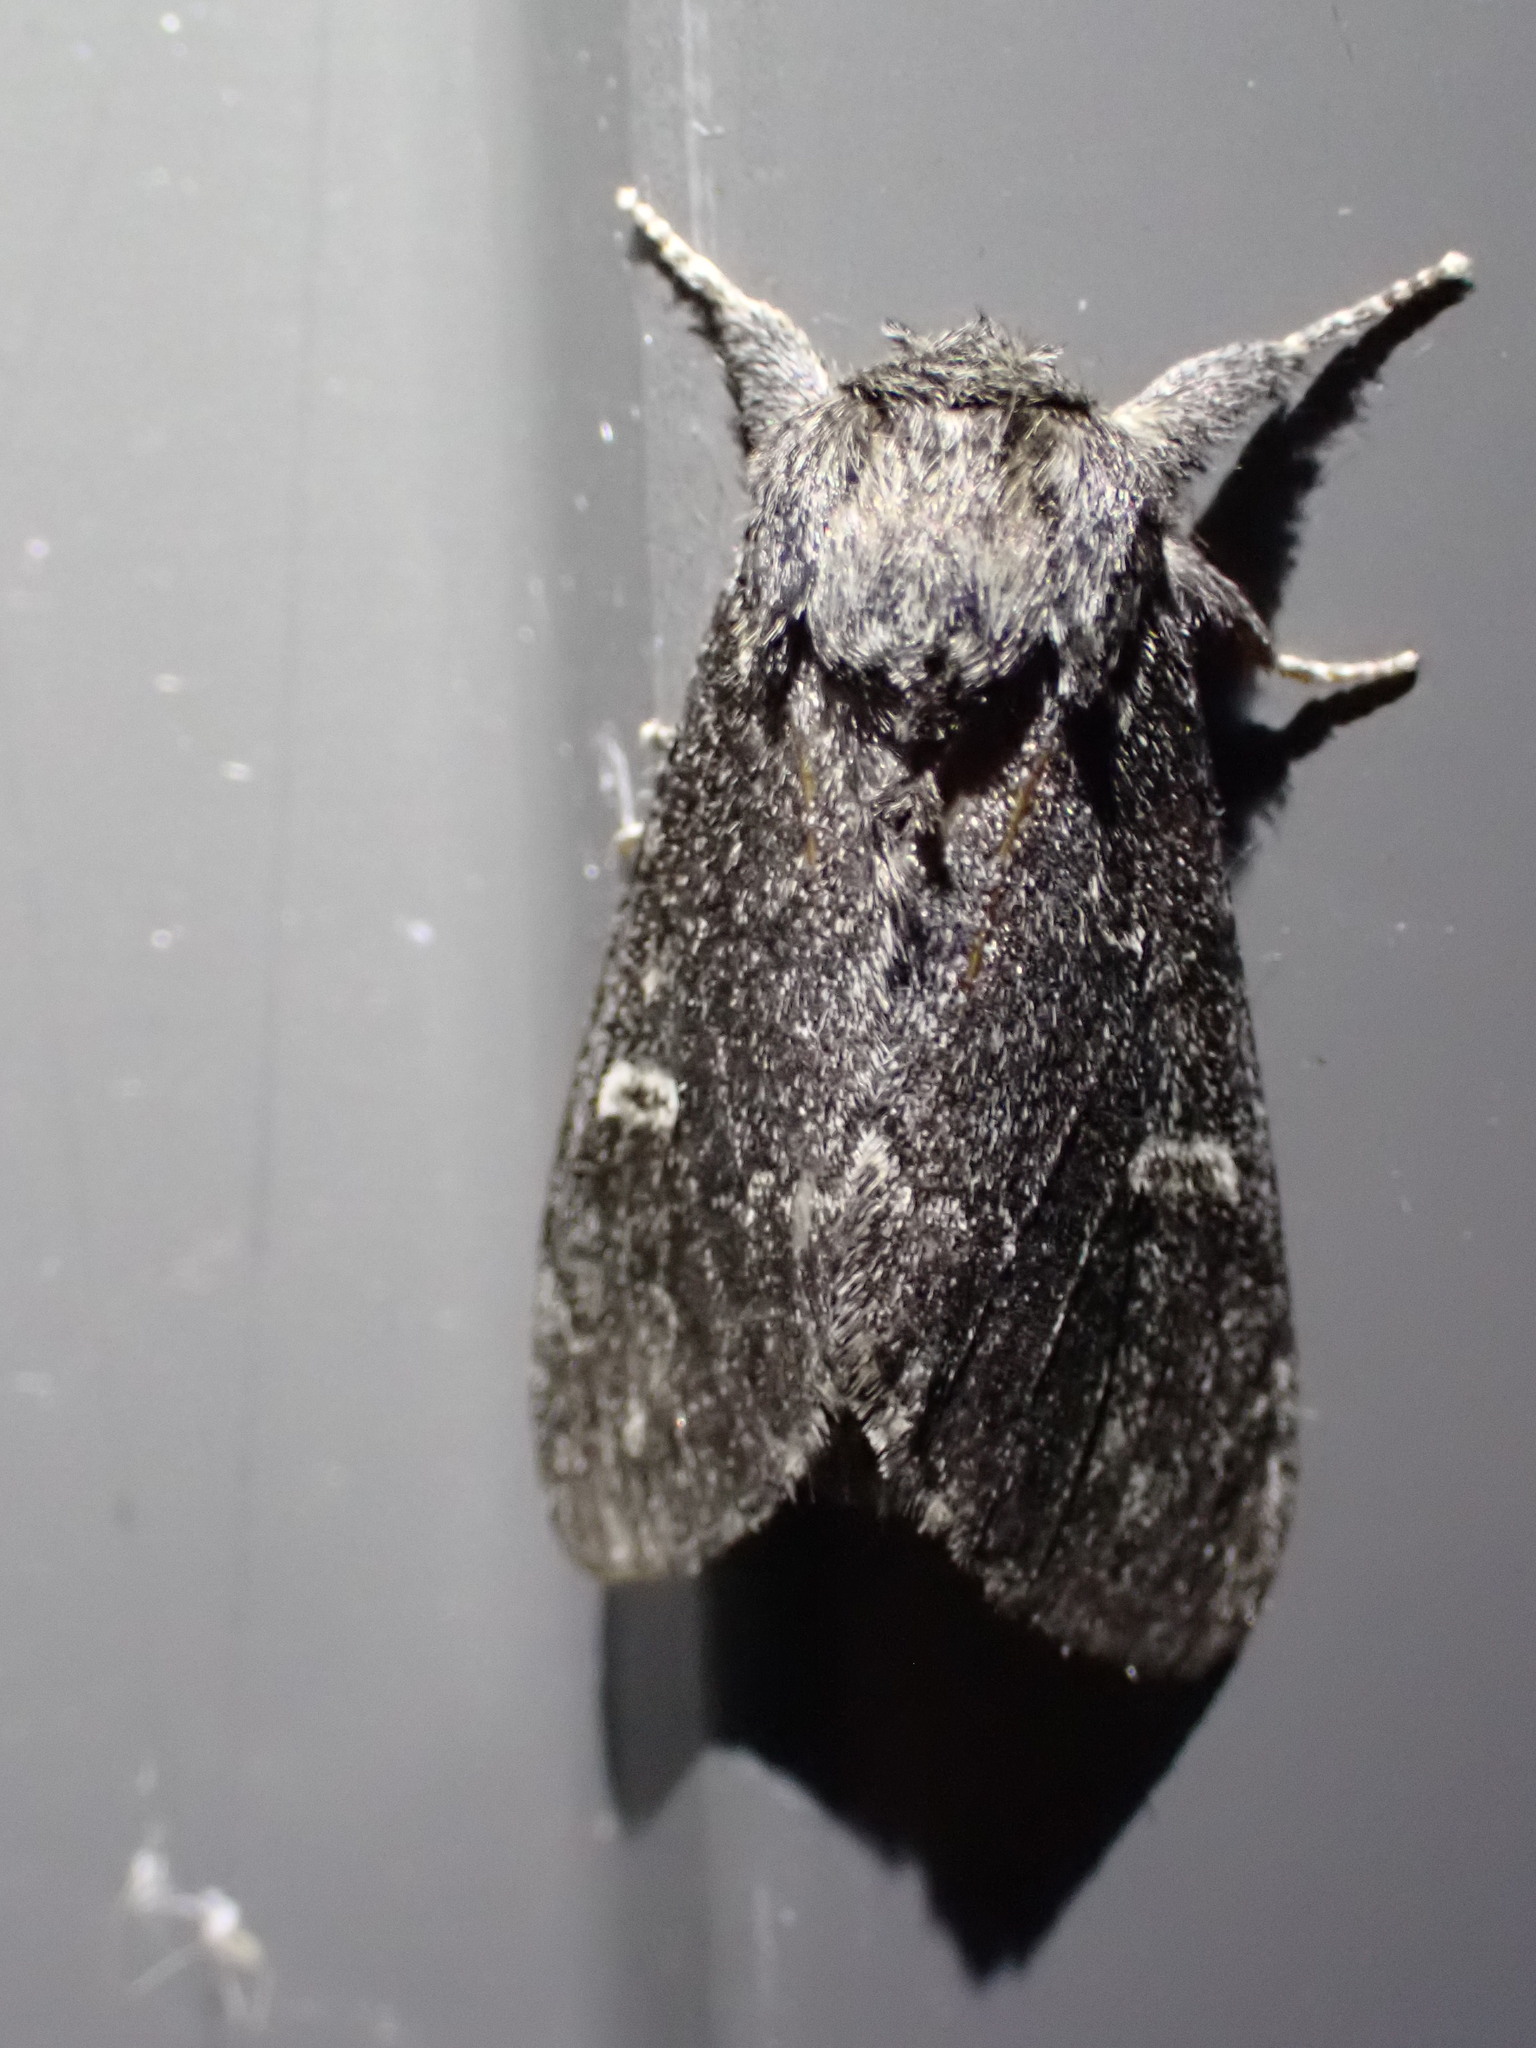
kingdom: Animalia
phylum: Arthropoda
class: Insecta
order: Lepidoptera
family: Notodontidae
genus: Notodonta
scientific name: Notodonta torva
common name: Large dark prominent
